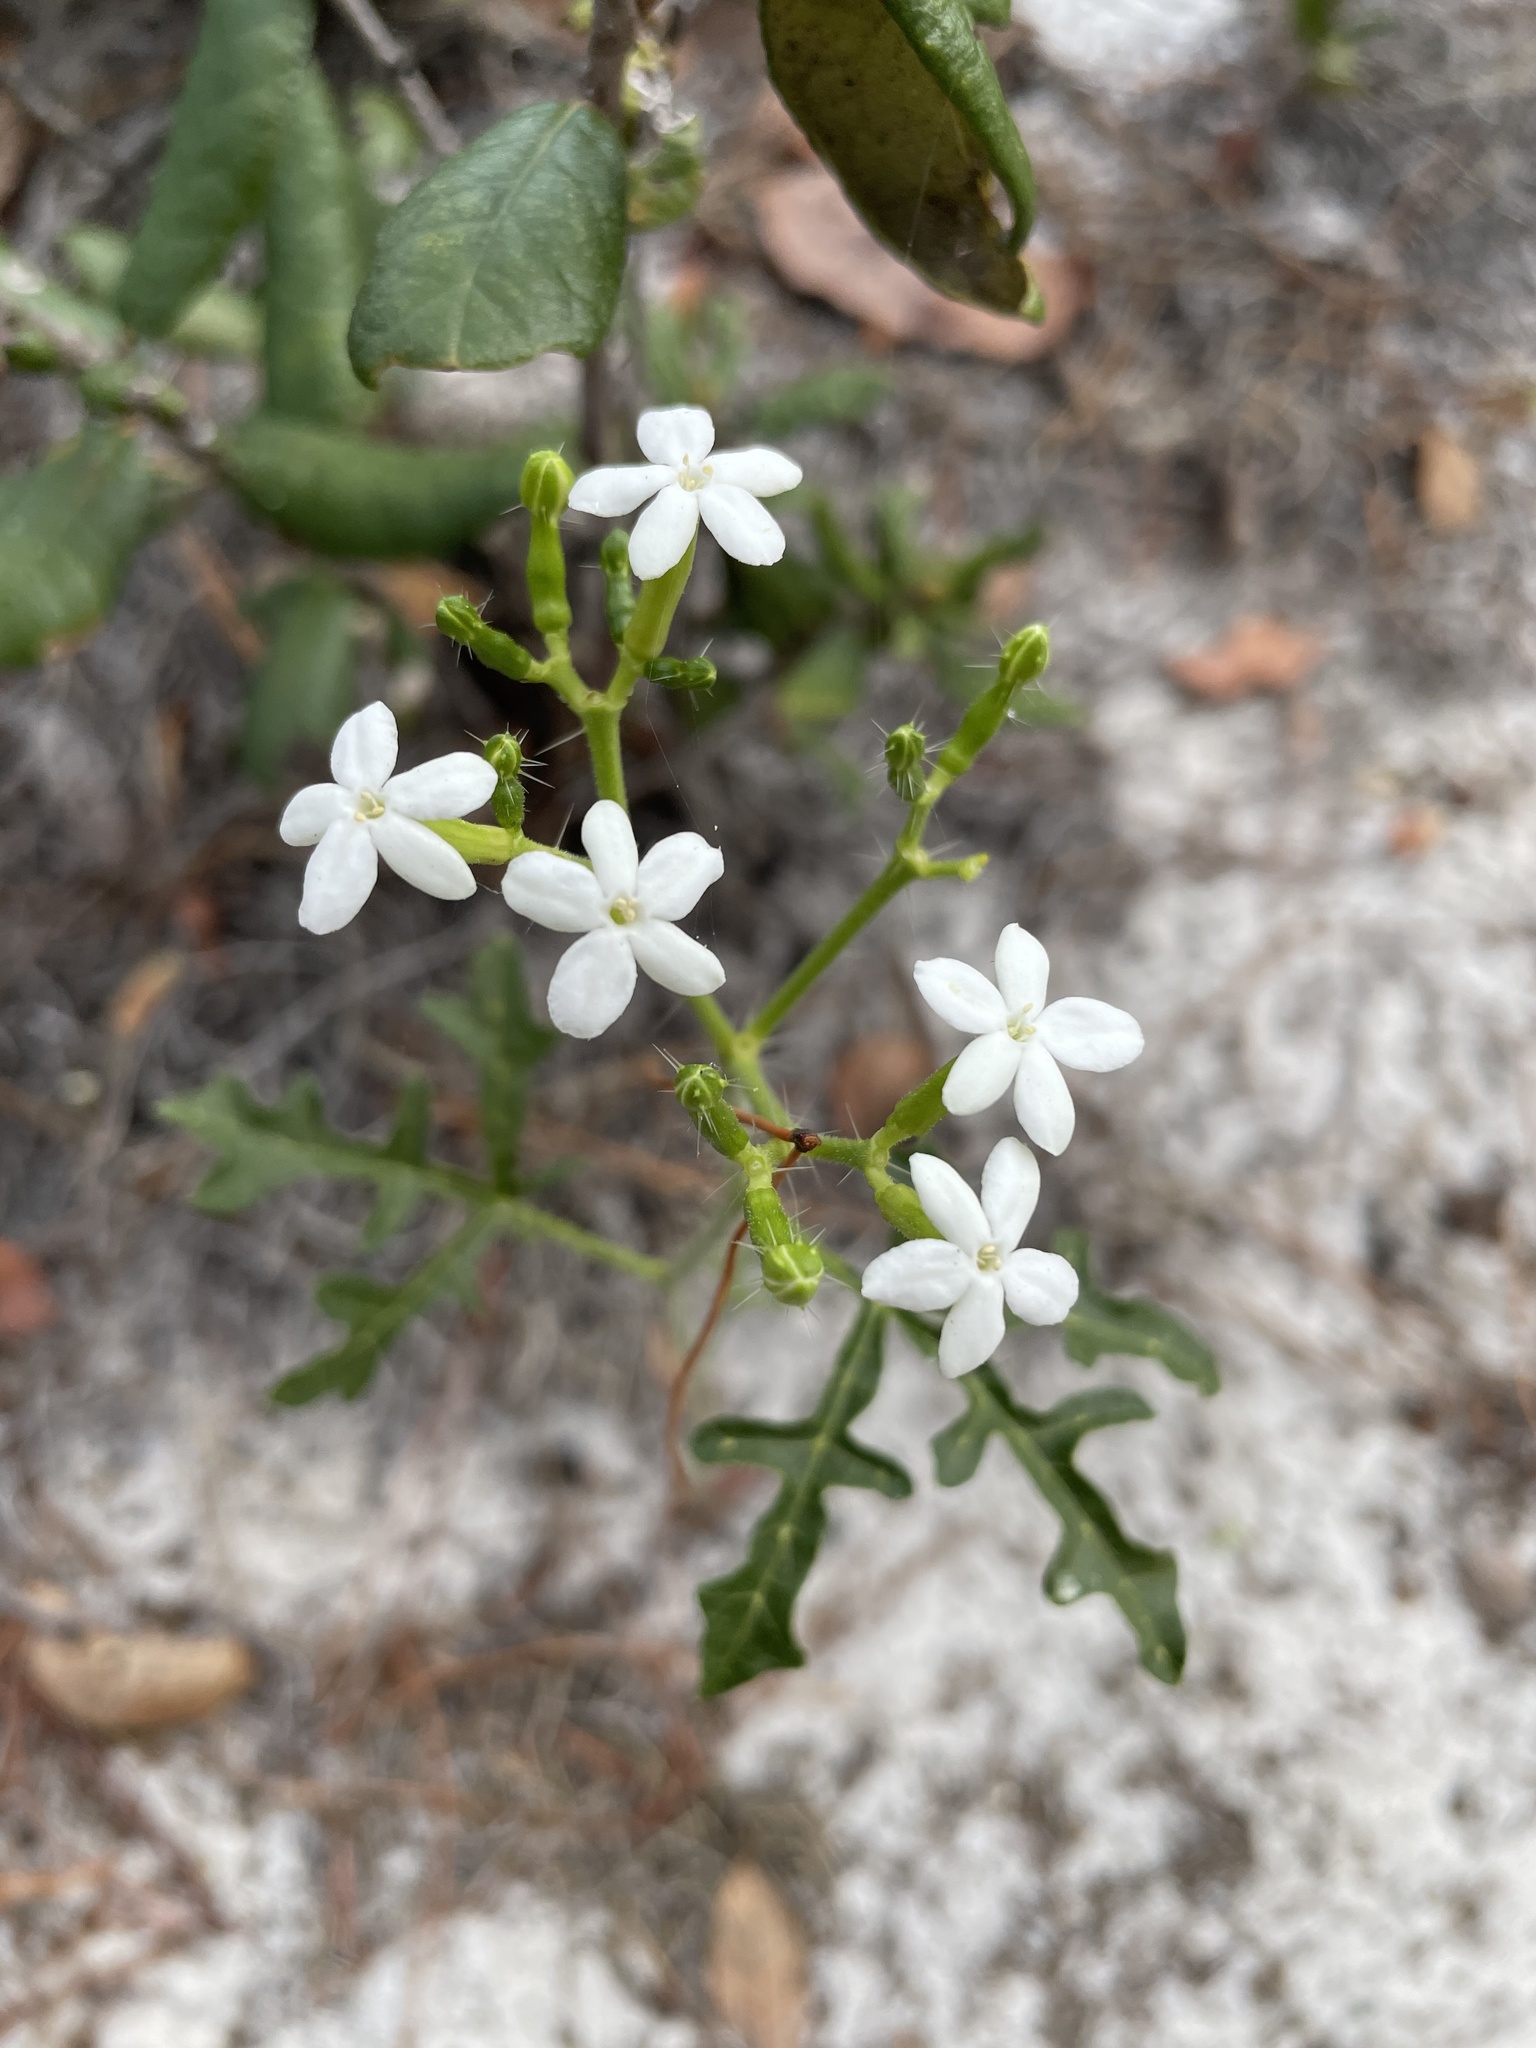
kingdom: Plantae
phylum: Tracheophyta
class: Magnoliopsida
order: Malpighiales
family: Euphorbiaceae
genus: Cnidoscolus
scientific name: Cnidoscolus stimulosus
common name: Bull-nettle
